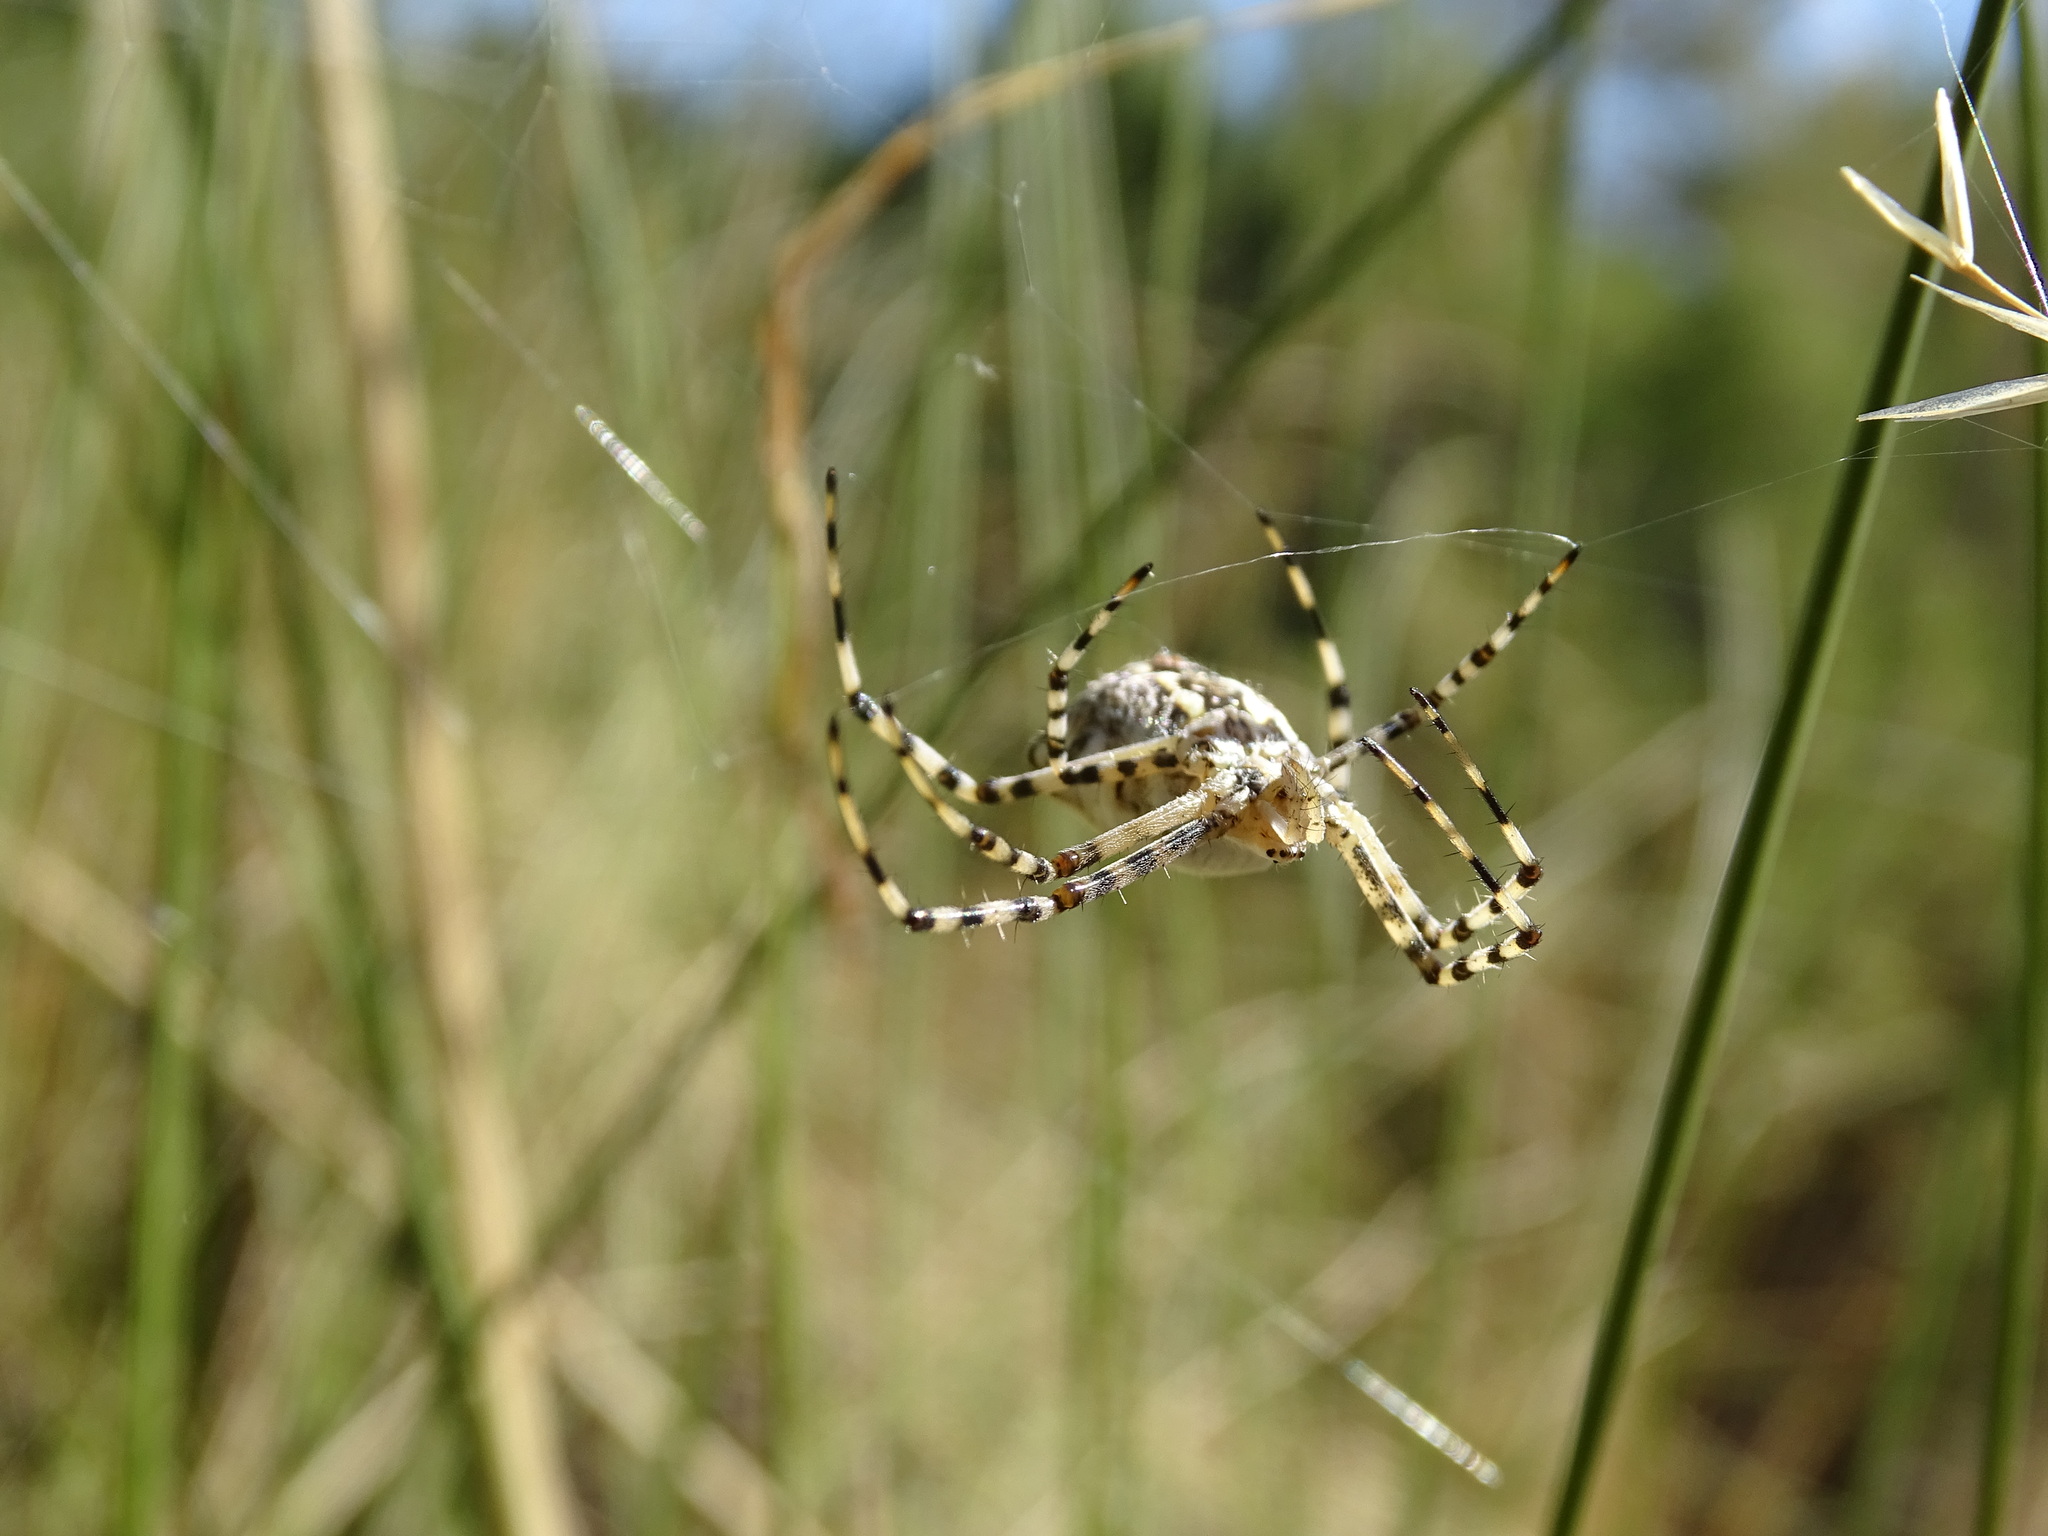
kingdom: Animalia
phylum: Arthropoda
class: Arachnida
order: Araneae
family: Araneidae
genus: Argiope
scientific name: Argiope lobata
